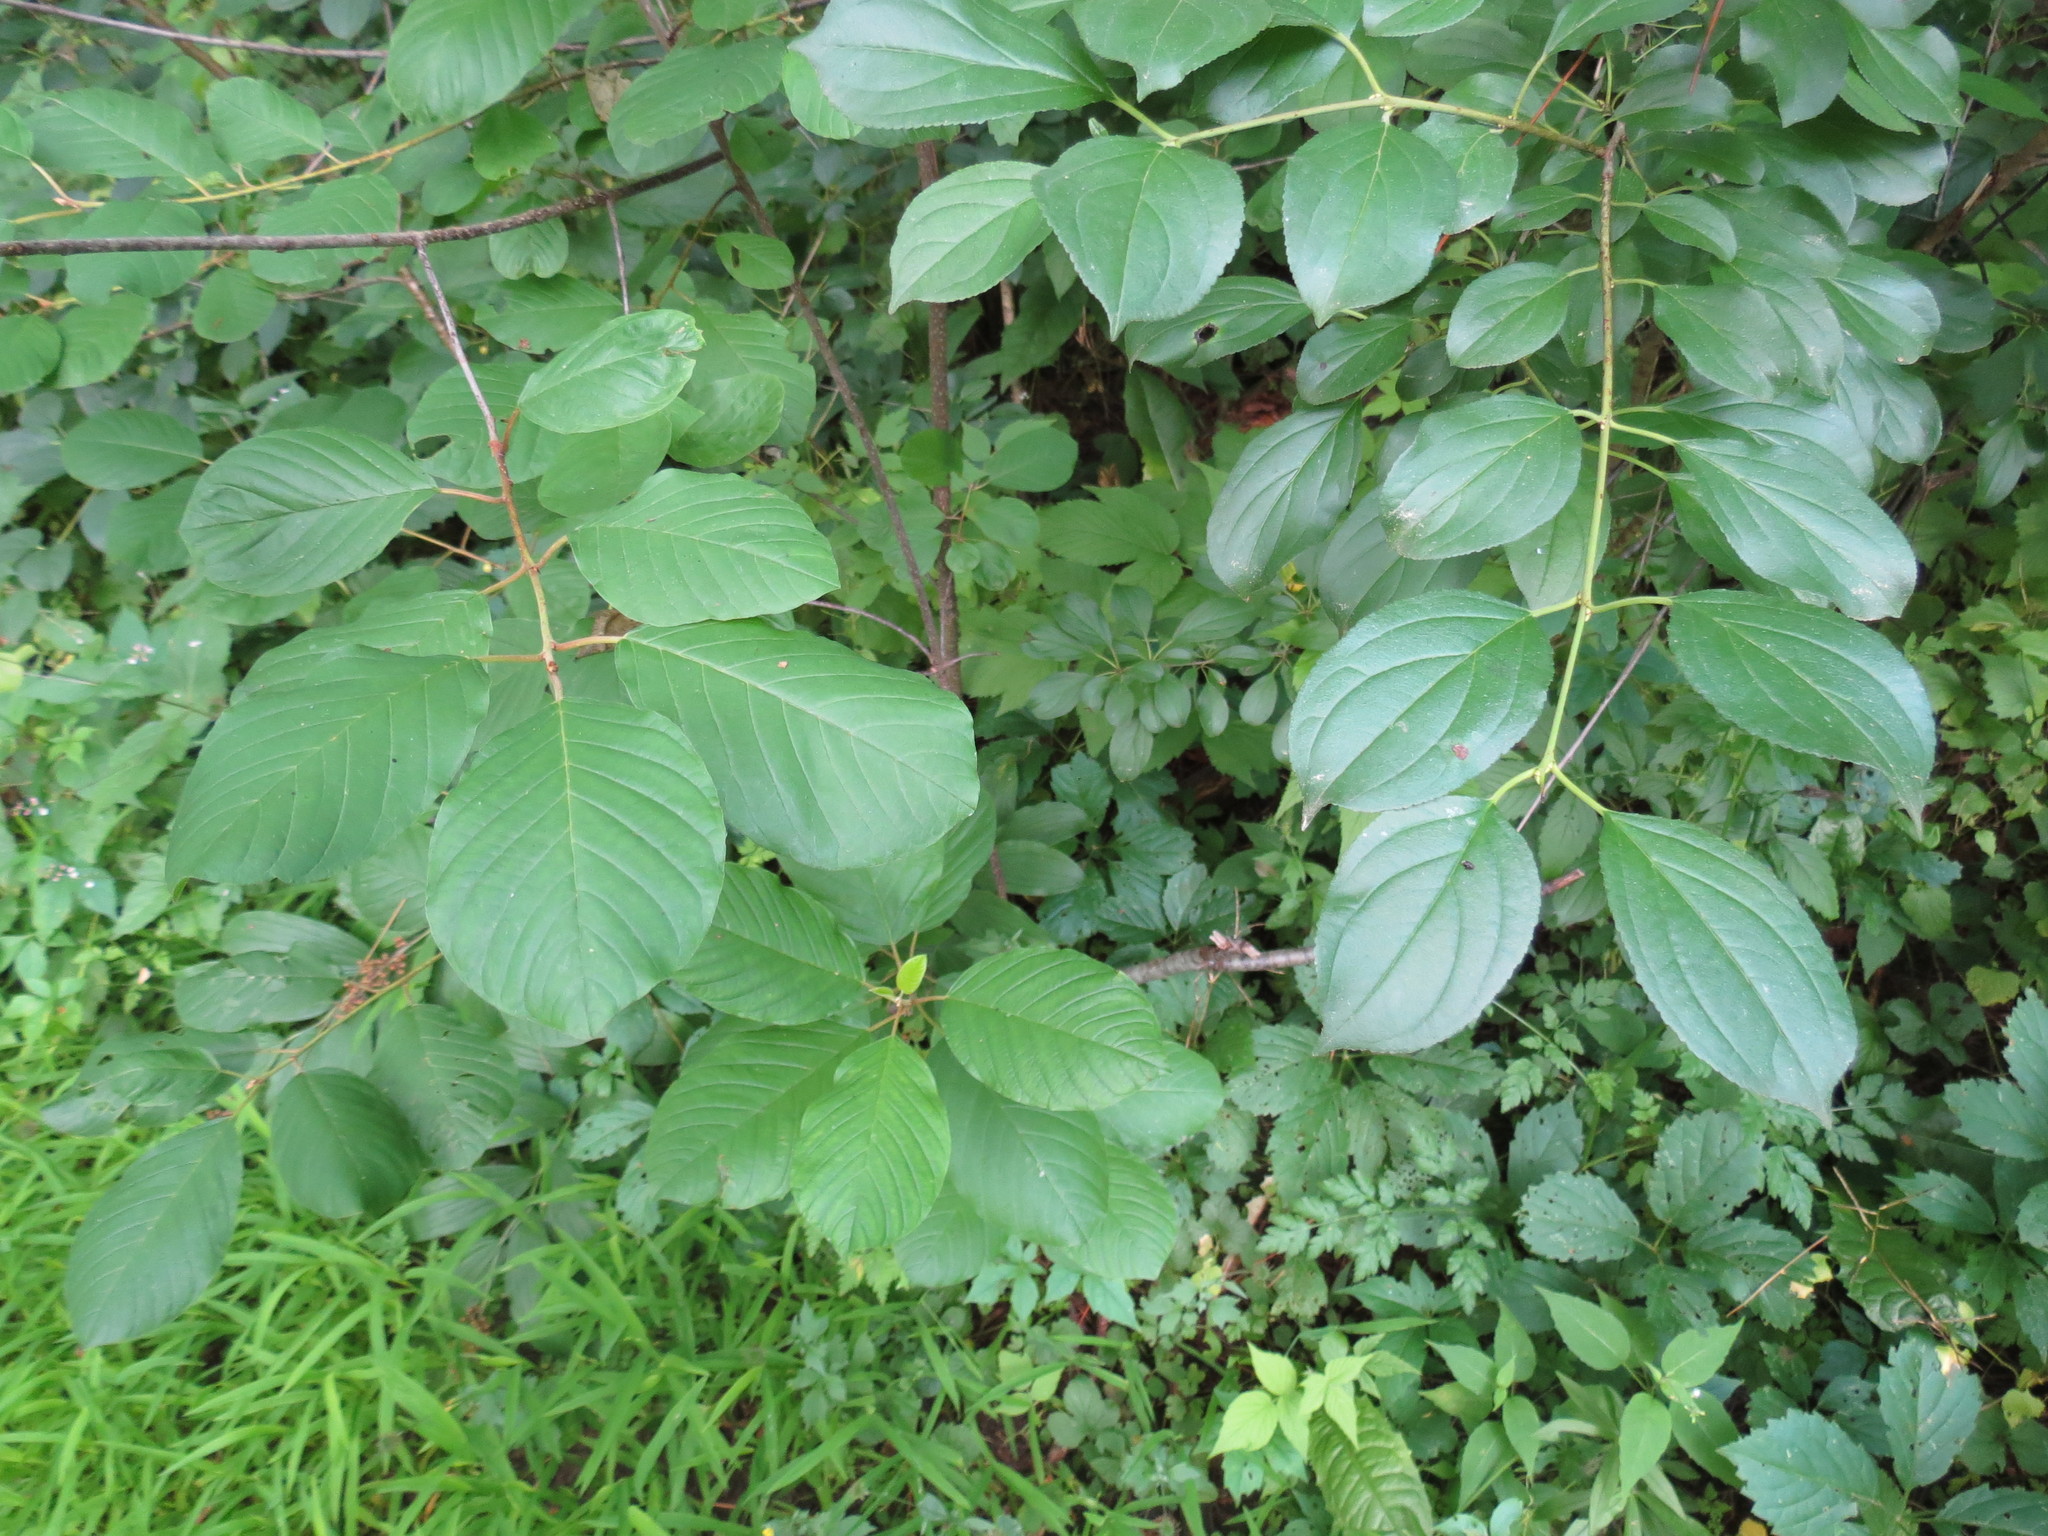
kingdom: Plantae
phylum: Tracheophyta
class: Magnoliopsida
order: Rosales
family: Rhamnaceae
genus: Rhamnus
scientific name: Rhamnus cathartica
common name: Common buckthorn
